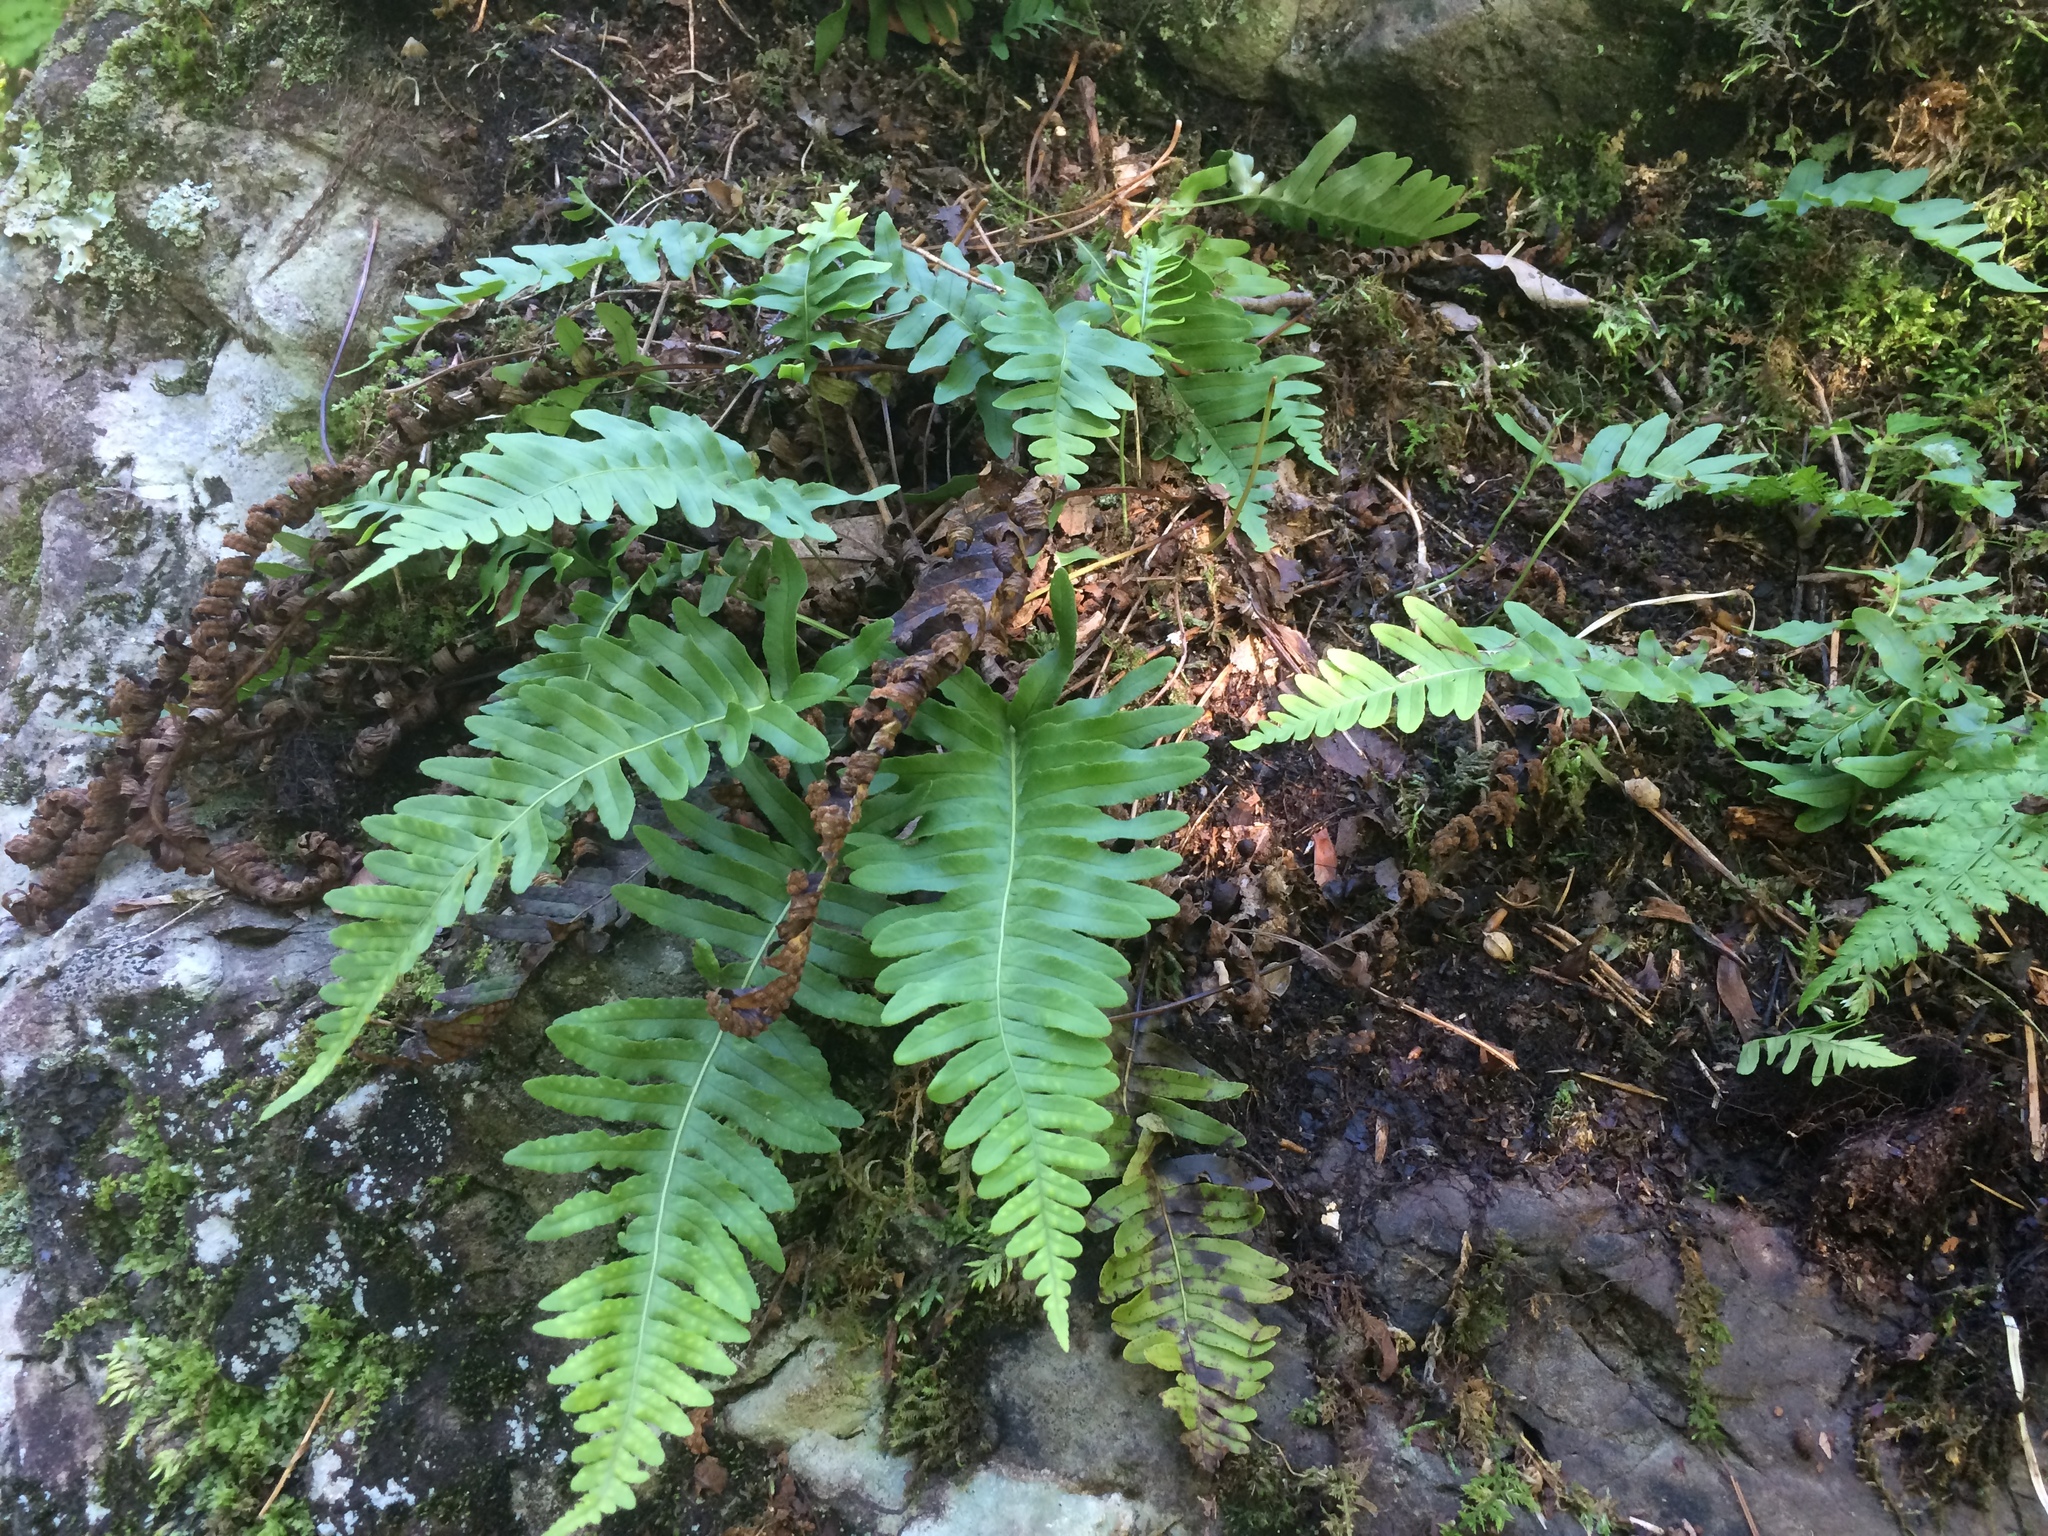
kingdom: Plantae
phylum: Tracheophyta
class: Polypodiopsida
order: Polypodiales
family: Polypodiaceae
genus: Polypodium
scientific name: Polypodium appalachianum
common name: Appalachian polypody
